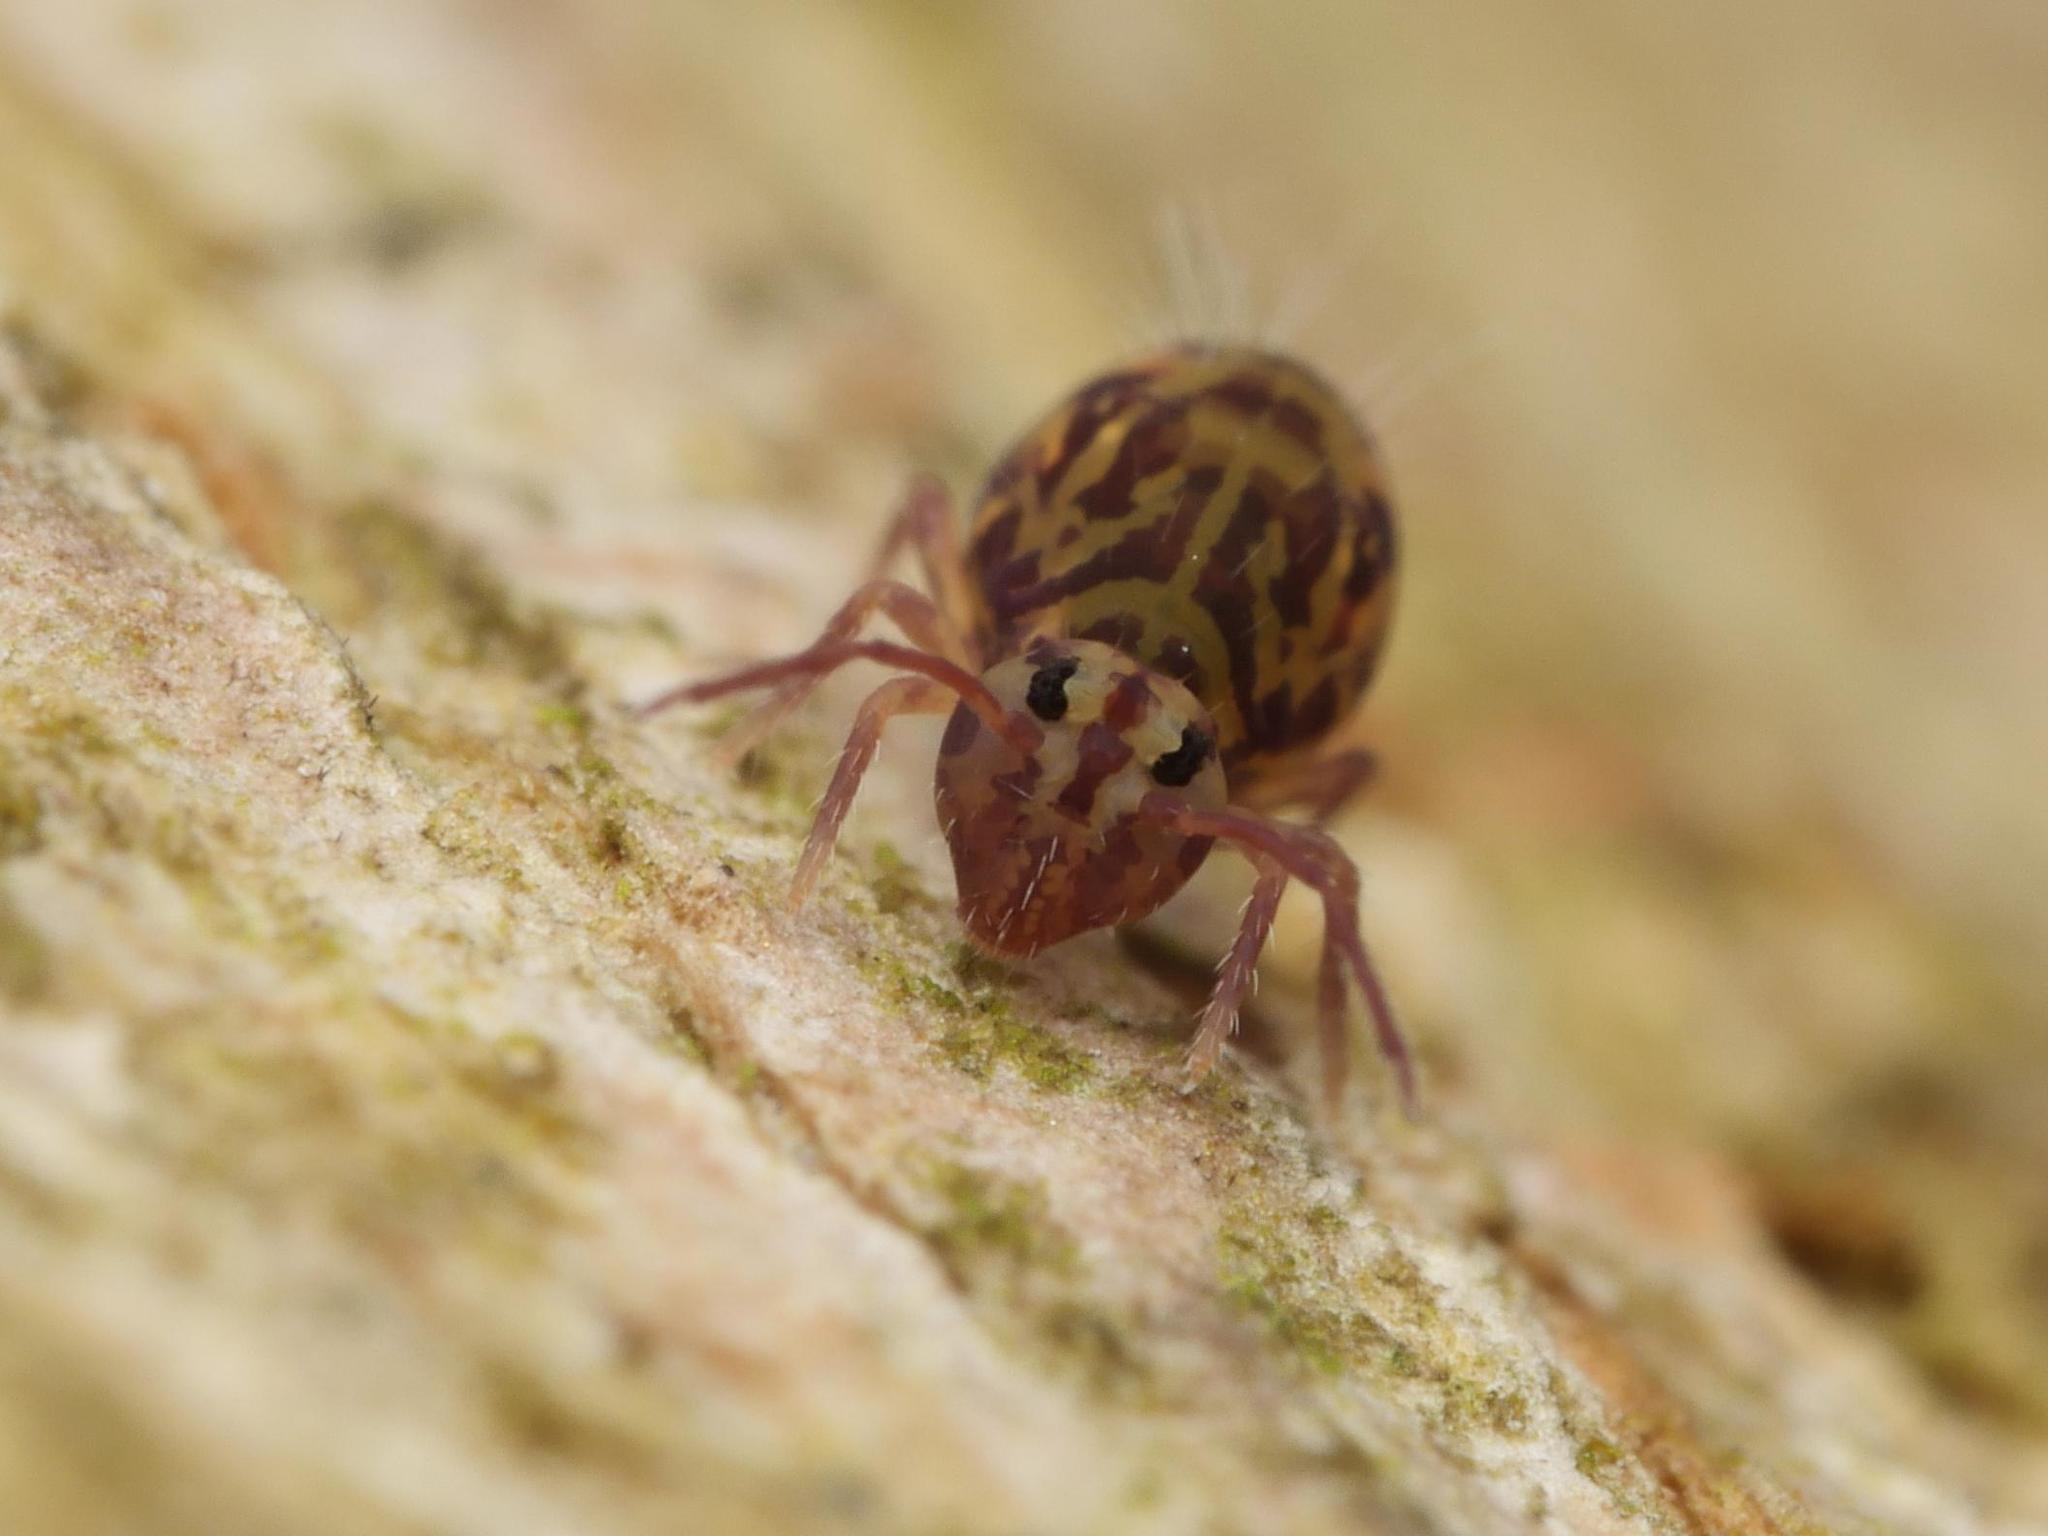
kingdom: Animalia
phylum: Arthropoda
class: Collembola
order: Symphypleona
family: Dicyrtomidae
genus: Dicyrtomina
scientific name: Dicyrtomina ornata
